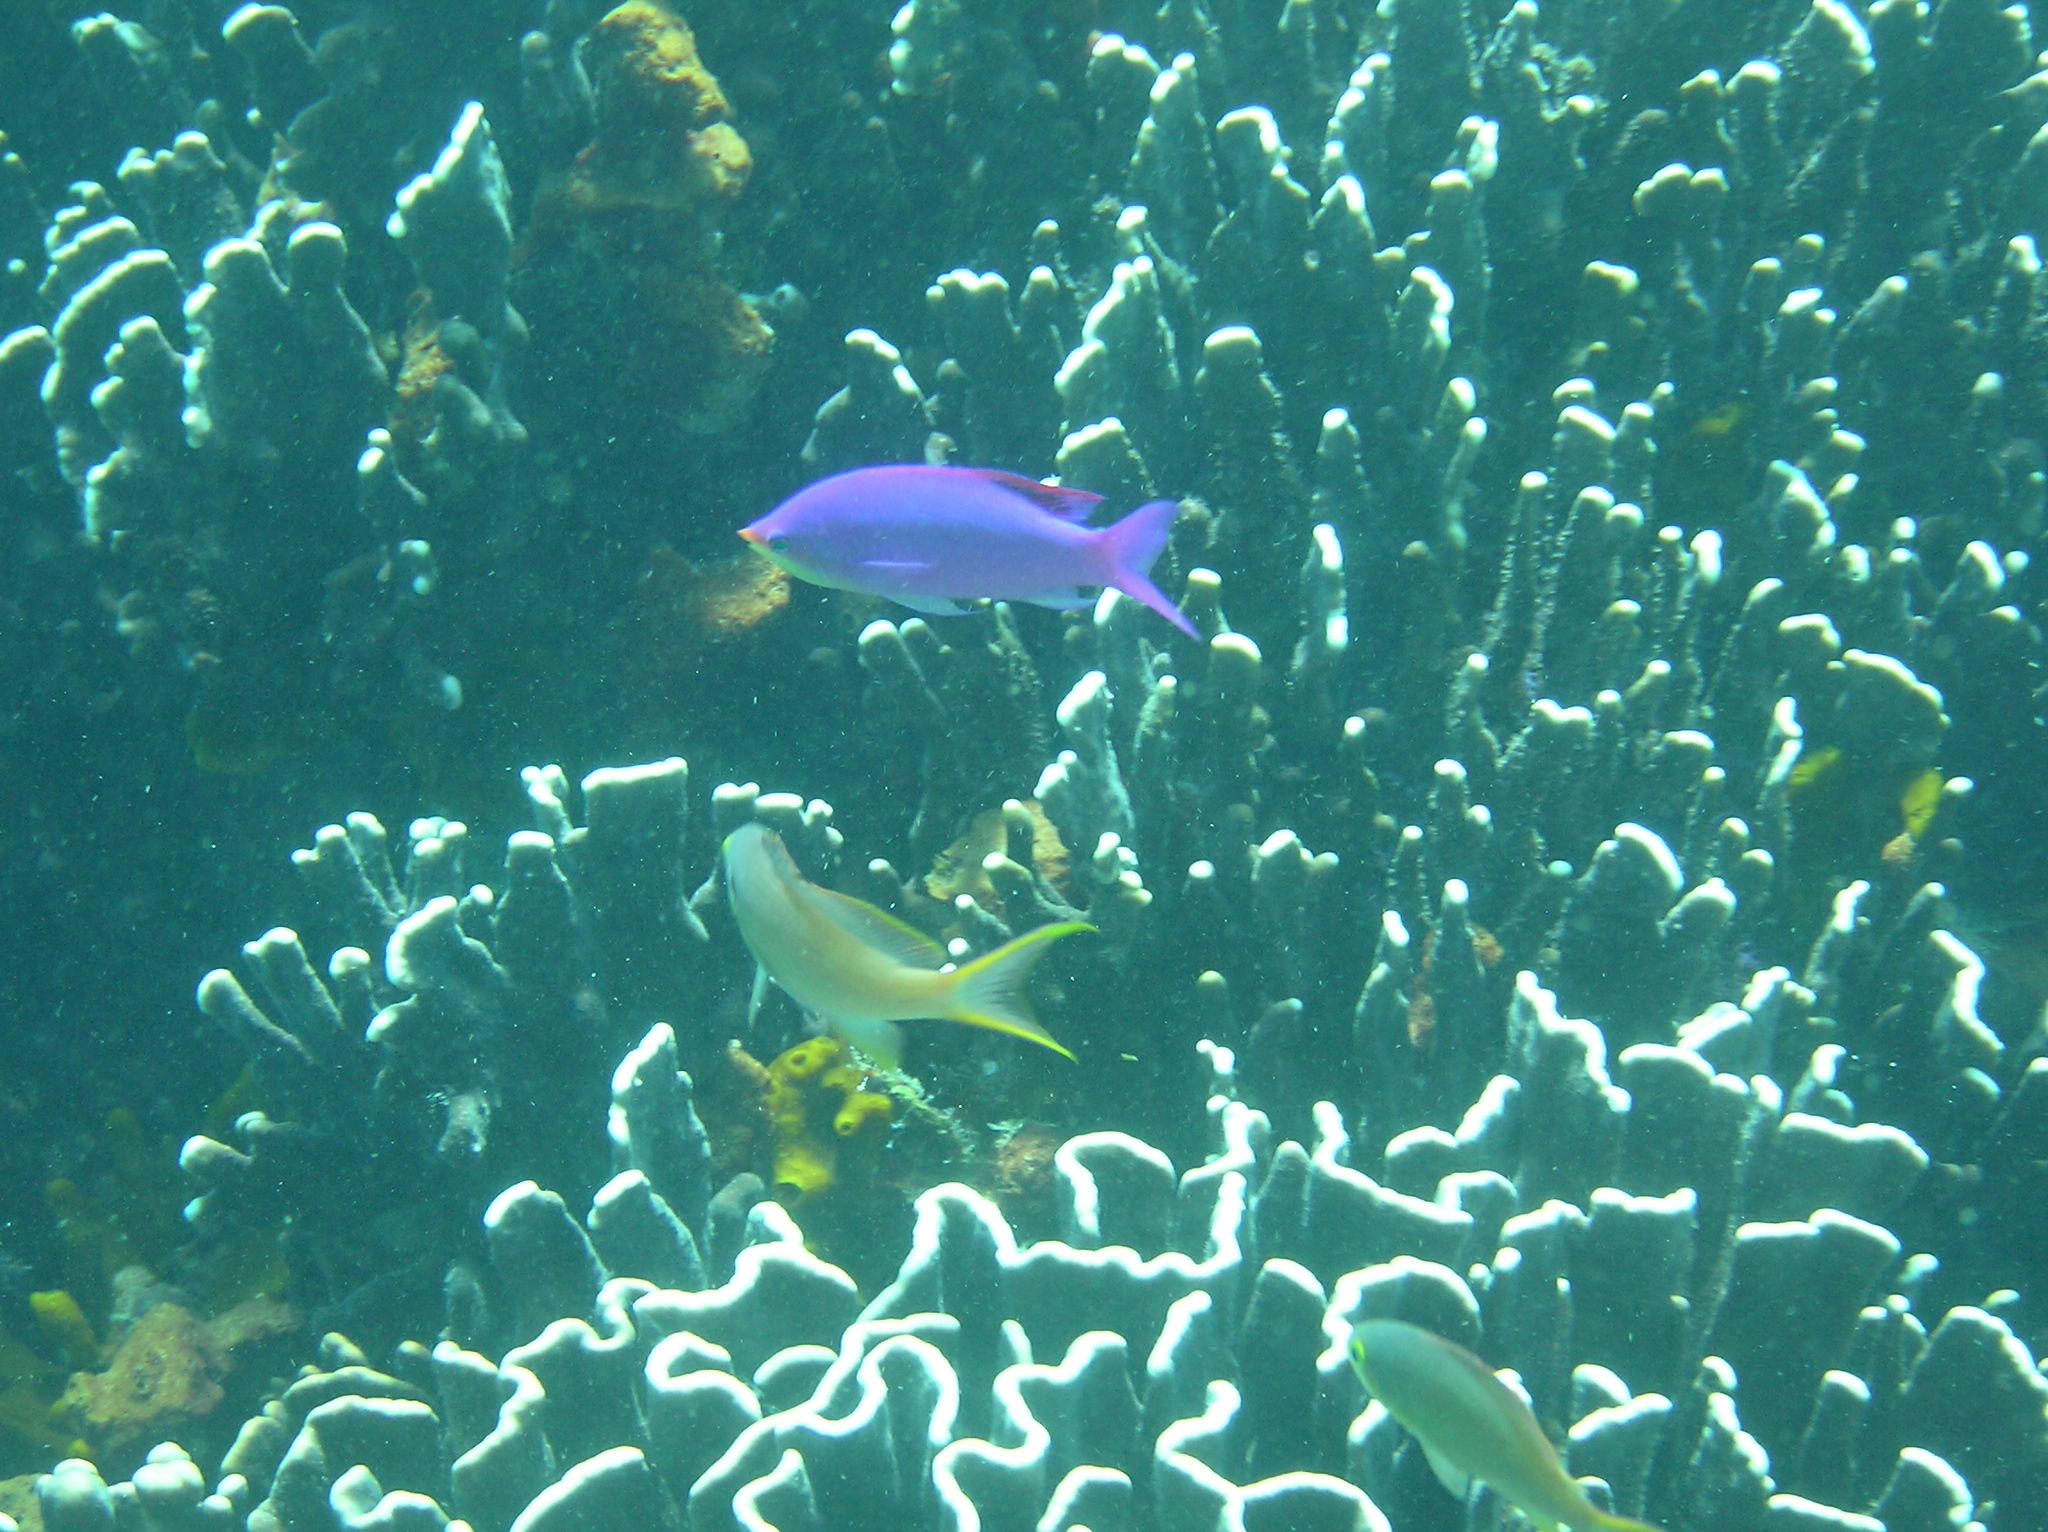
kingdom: Animalia
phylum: Chordata
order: Perciformes
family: Serranidae
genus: Pseudanthias
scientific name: Pseudanthias tuka
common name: Purple queen
